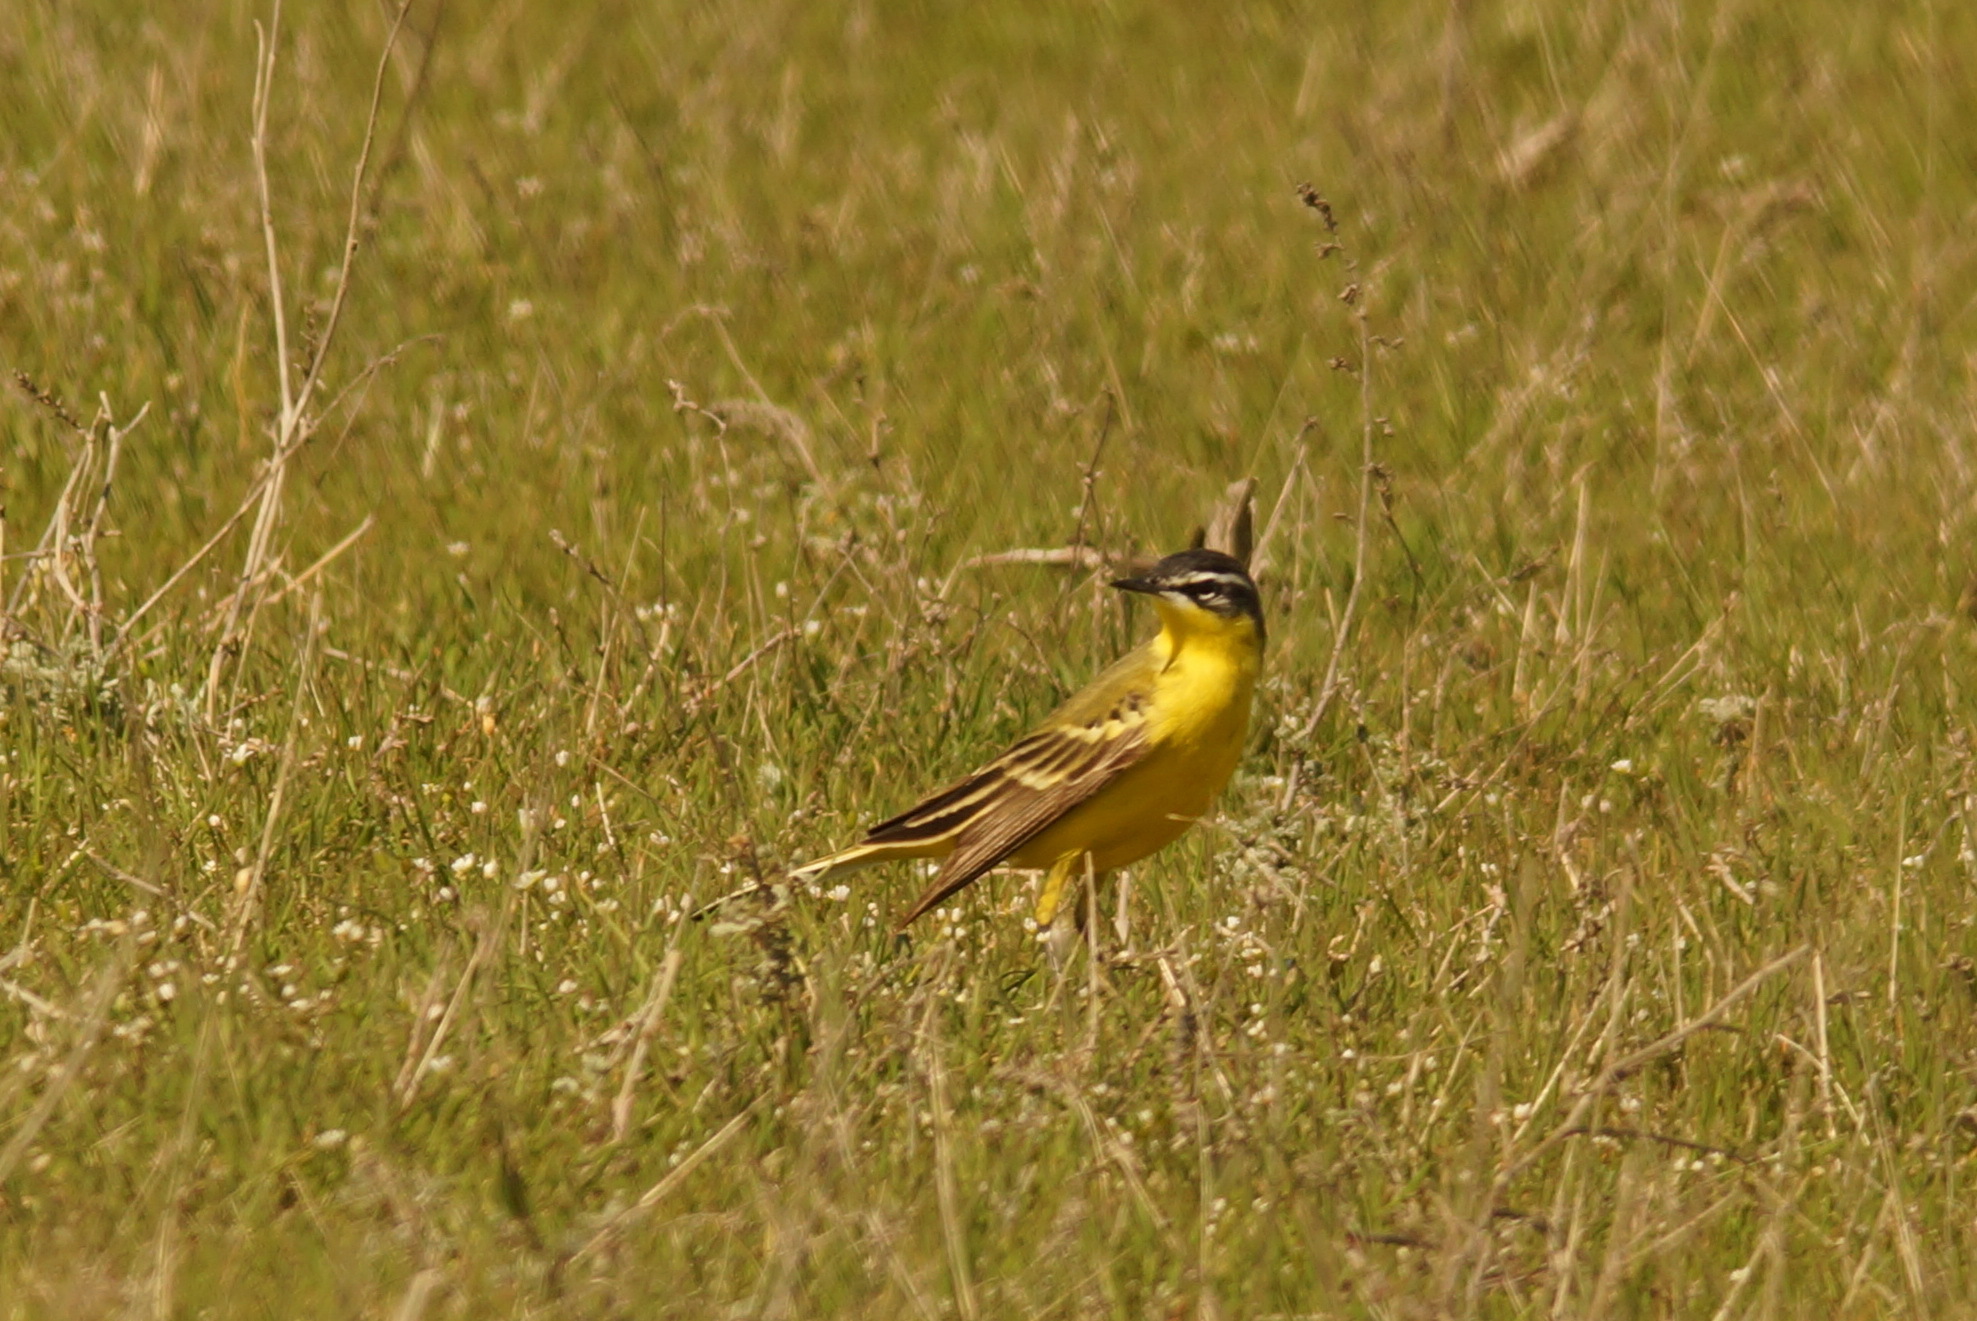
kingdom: Animalia
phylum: Chordata
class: Aves
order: Passeriformes
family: Motacillidae
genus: Motacilla
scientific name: Motacilla
